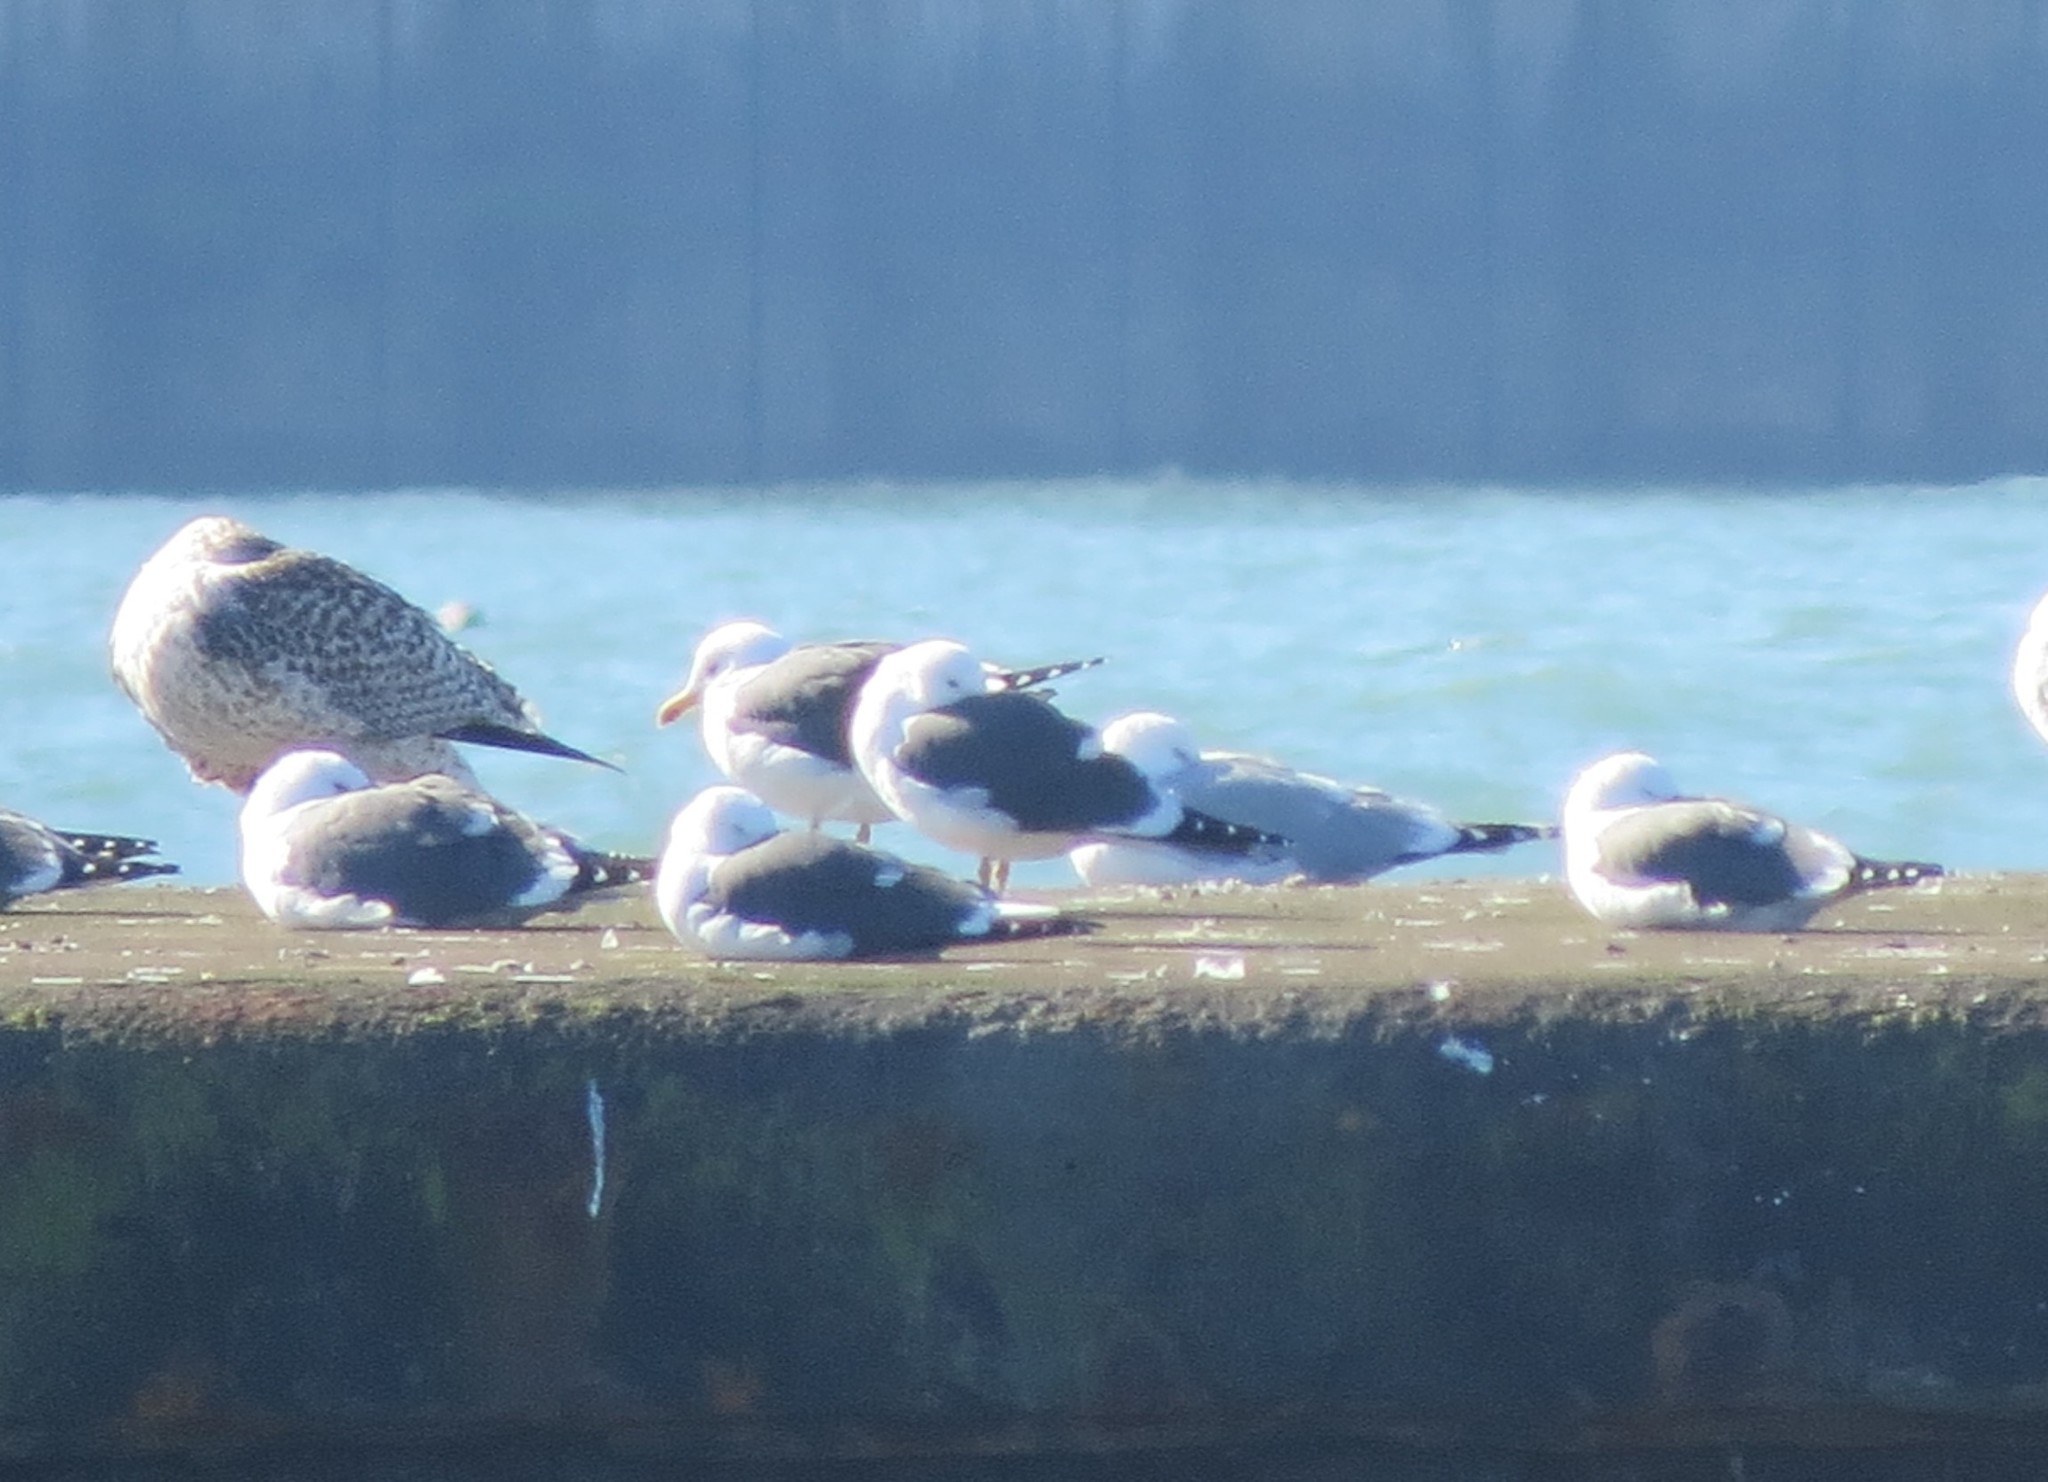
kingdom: Animalia
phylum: Chordata
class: Aves
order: Charadriiformes
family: Laridae
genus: Larus
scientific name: Larus marinus
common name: Great black-backed gull
